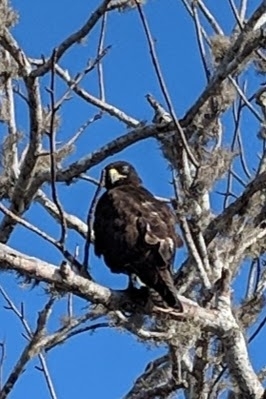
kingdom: Animalia
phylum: Chordata
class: Aves
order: Accipitriformes
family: Accipitridae
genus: Buteo
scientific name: Buteo galapagoensis
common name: Galapagos hawk
